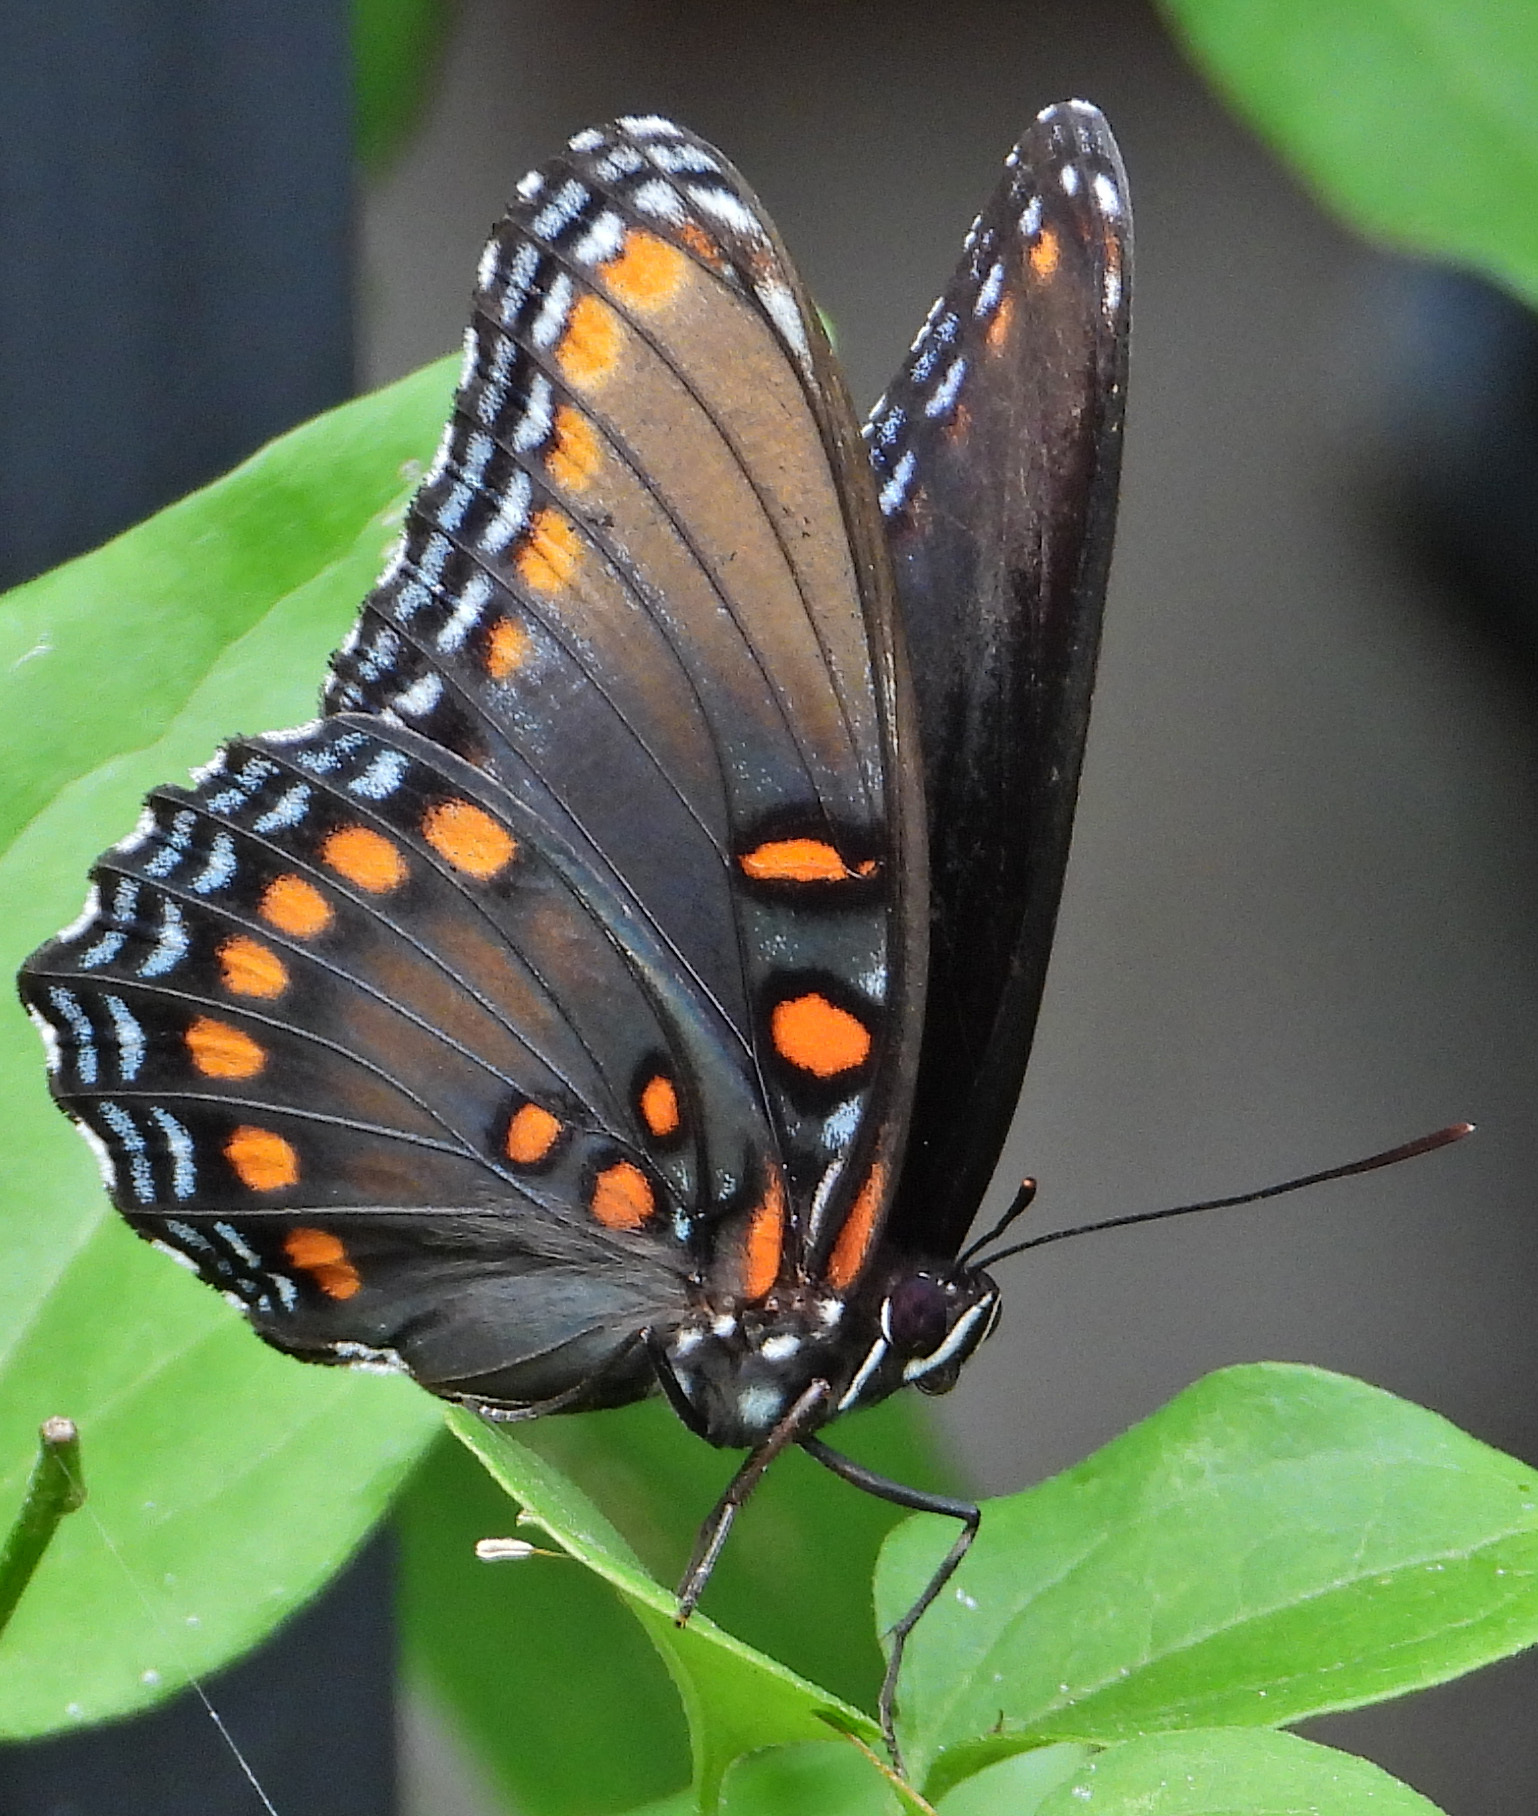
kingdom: Animalia
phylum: Arthropoda
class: Insecta
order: Lepidoptera
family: Nymphalidae
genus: Limenitis
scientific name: Limenitis astyanax
